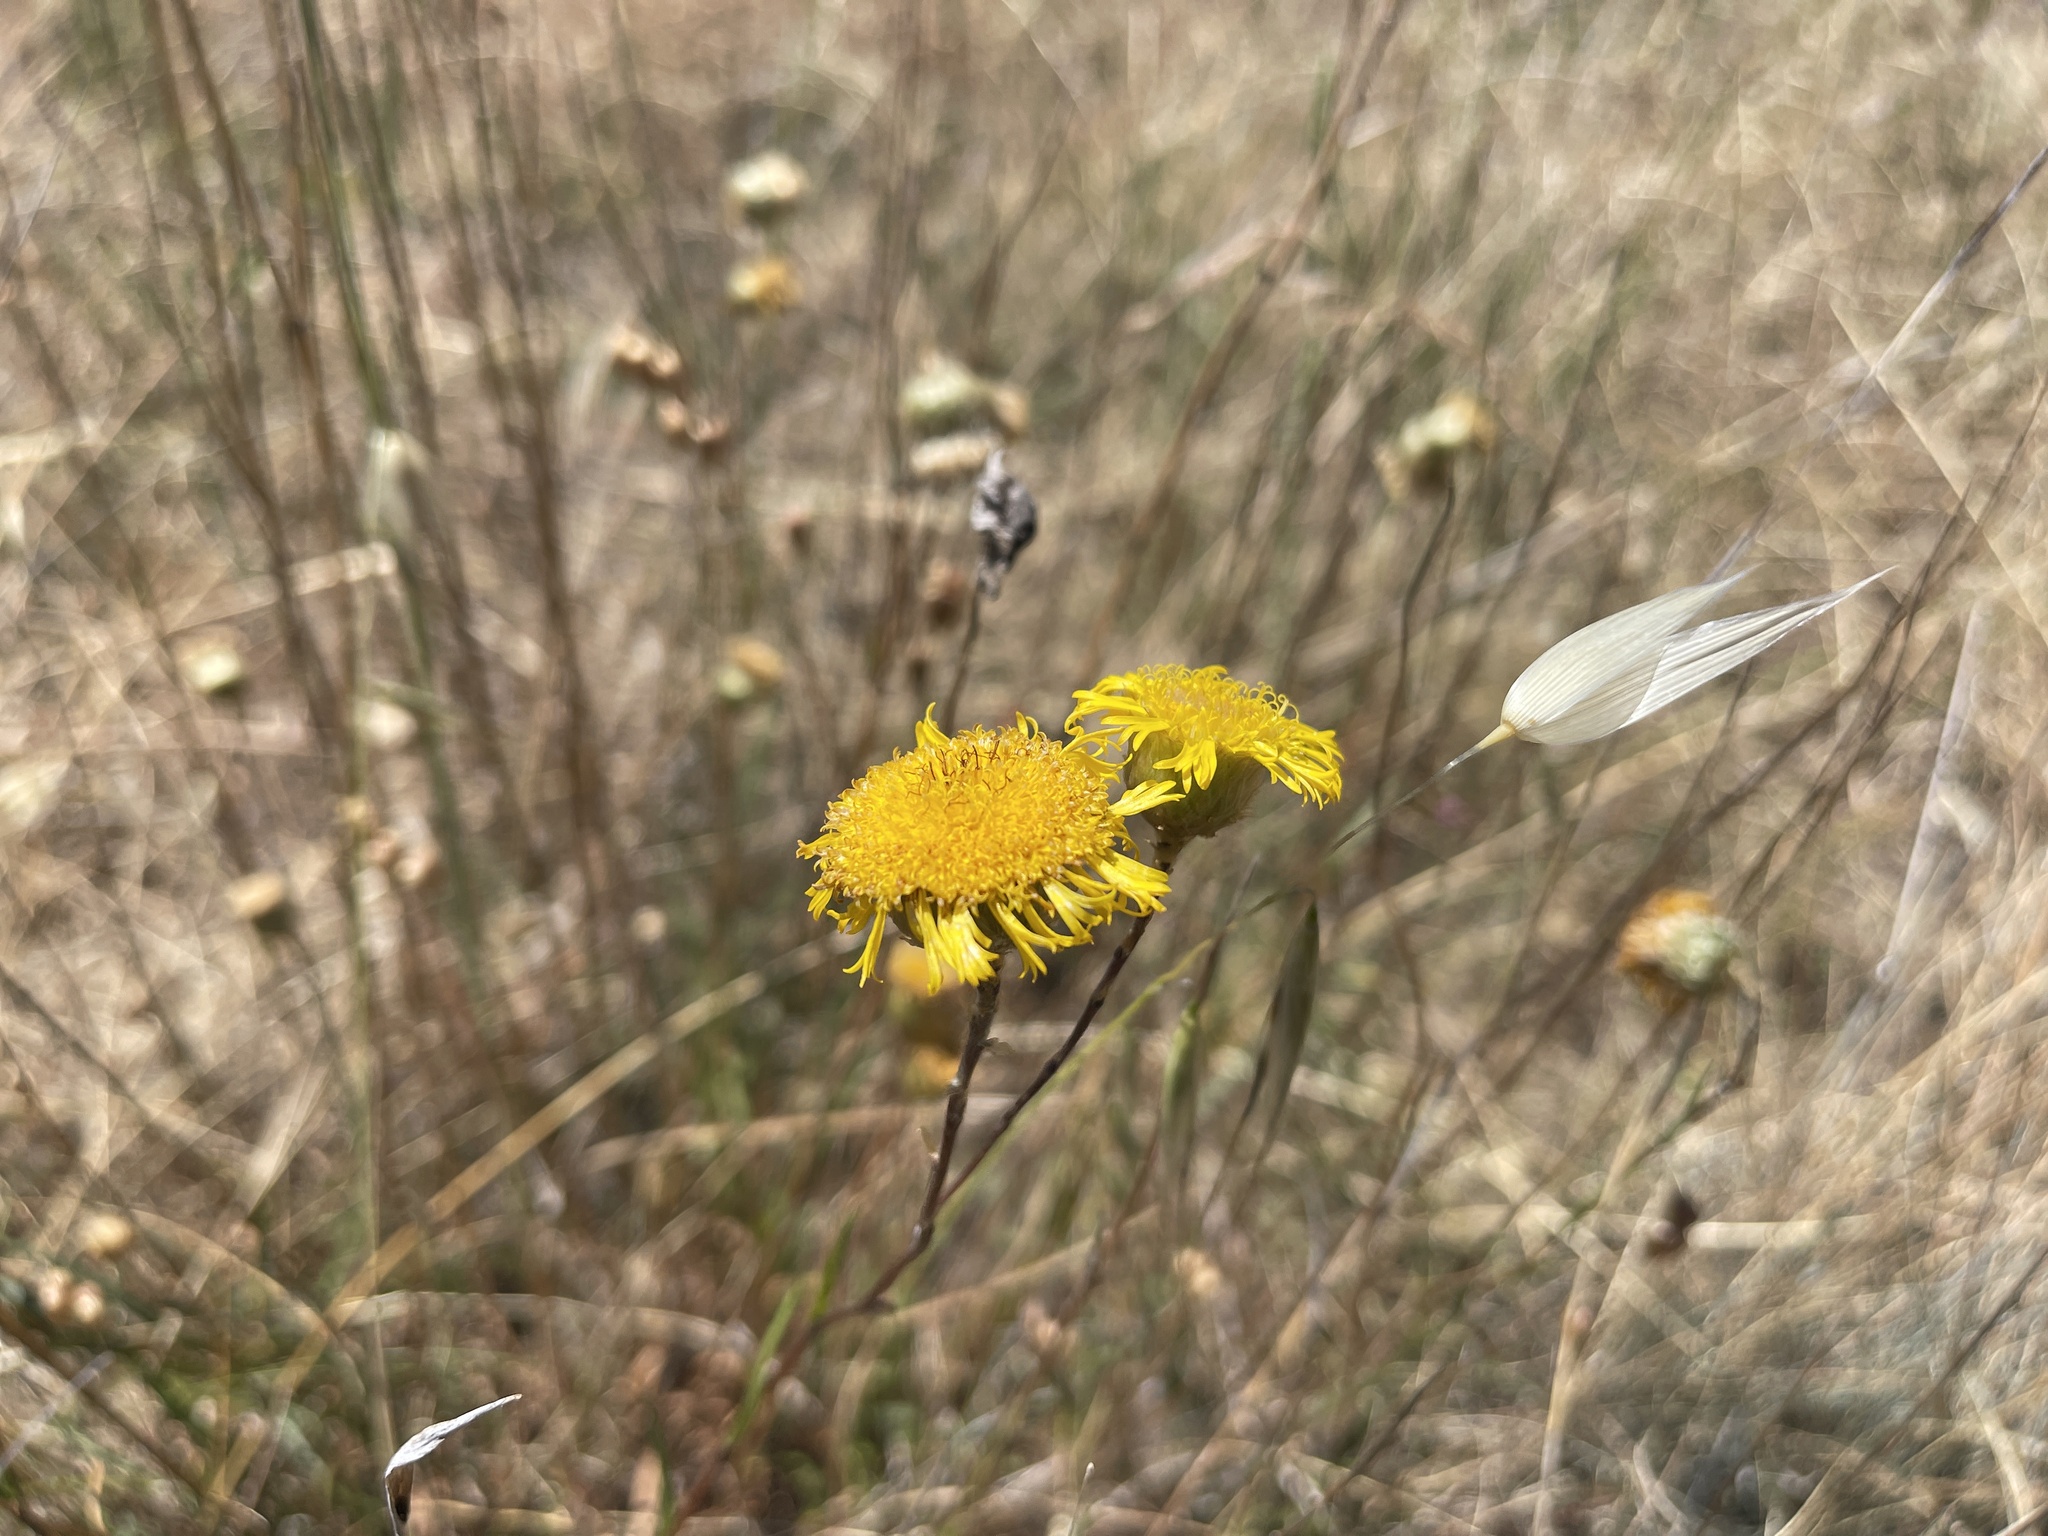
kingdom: Plantae
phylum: Tracheophyta
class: Magnoliopsida
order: Asterales
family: Asteraceae
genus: Podolepis
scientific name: Podolepis linearifolia
